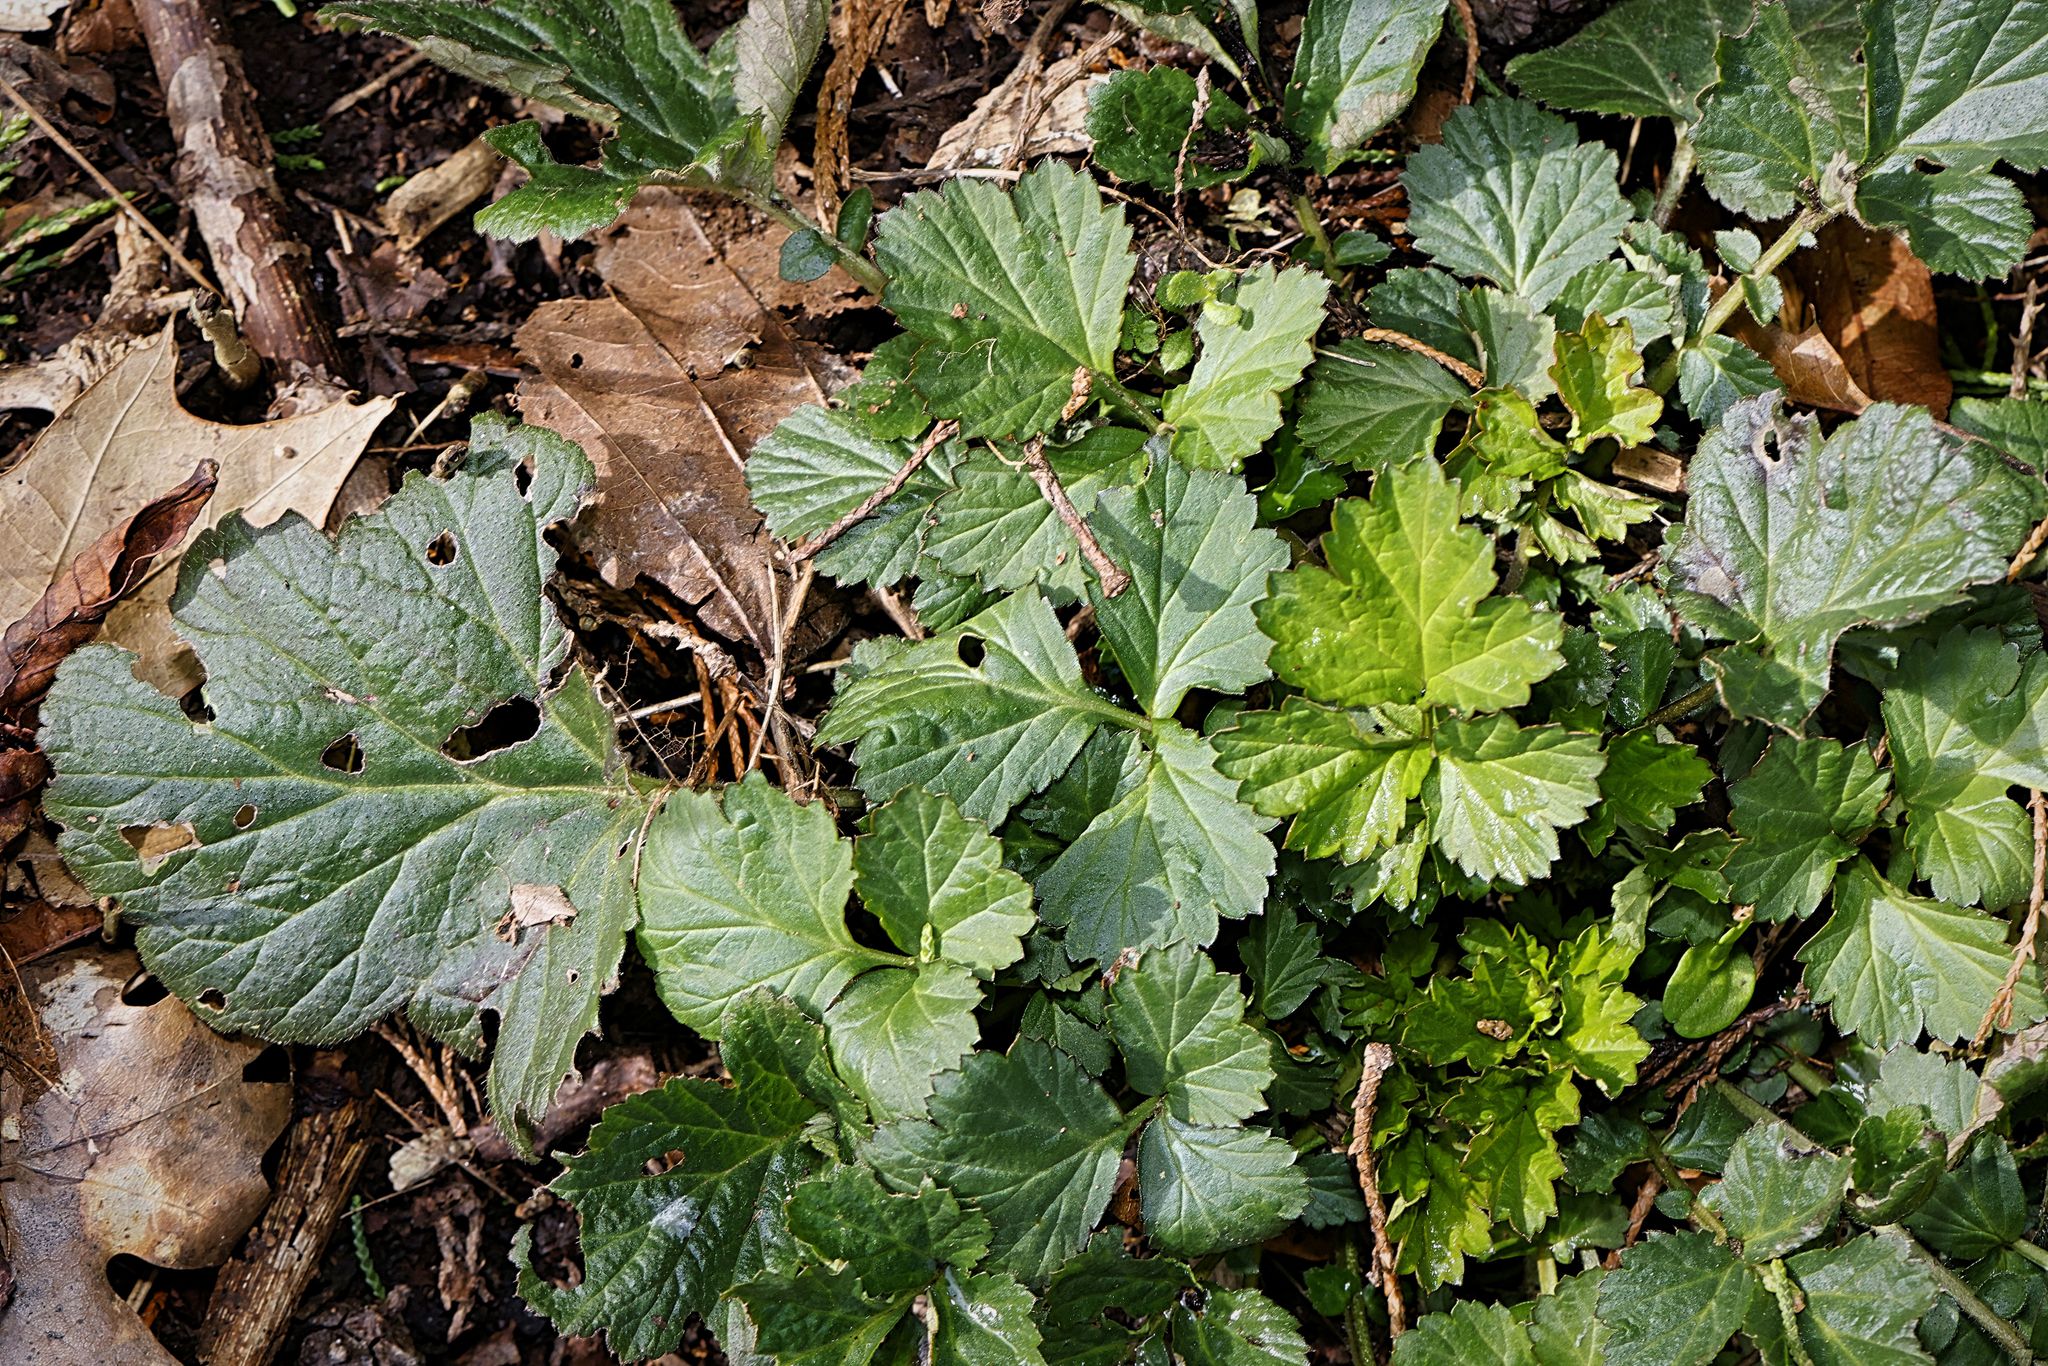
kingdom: Plantae
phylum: Tracheophyta
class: Magnoliopsida
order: Rosales
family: Rosaceae
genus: Geum
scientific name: Geum urbanum
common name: Wood avens
